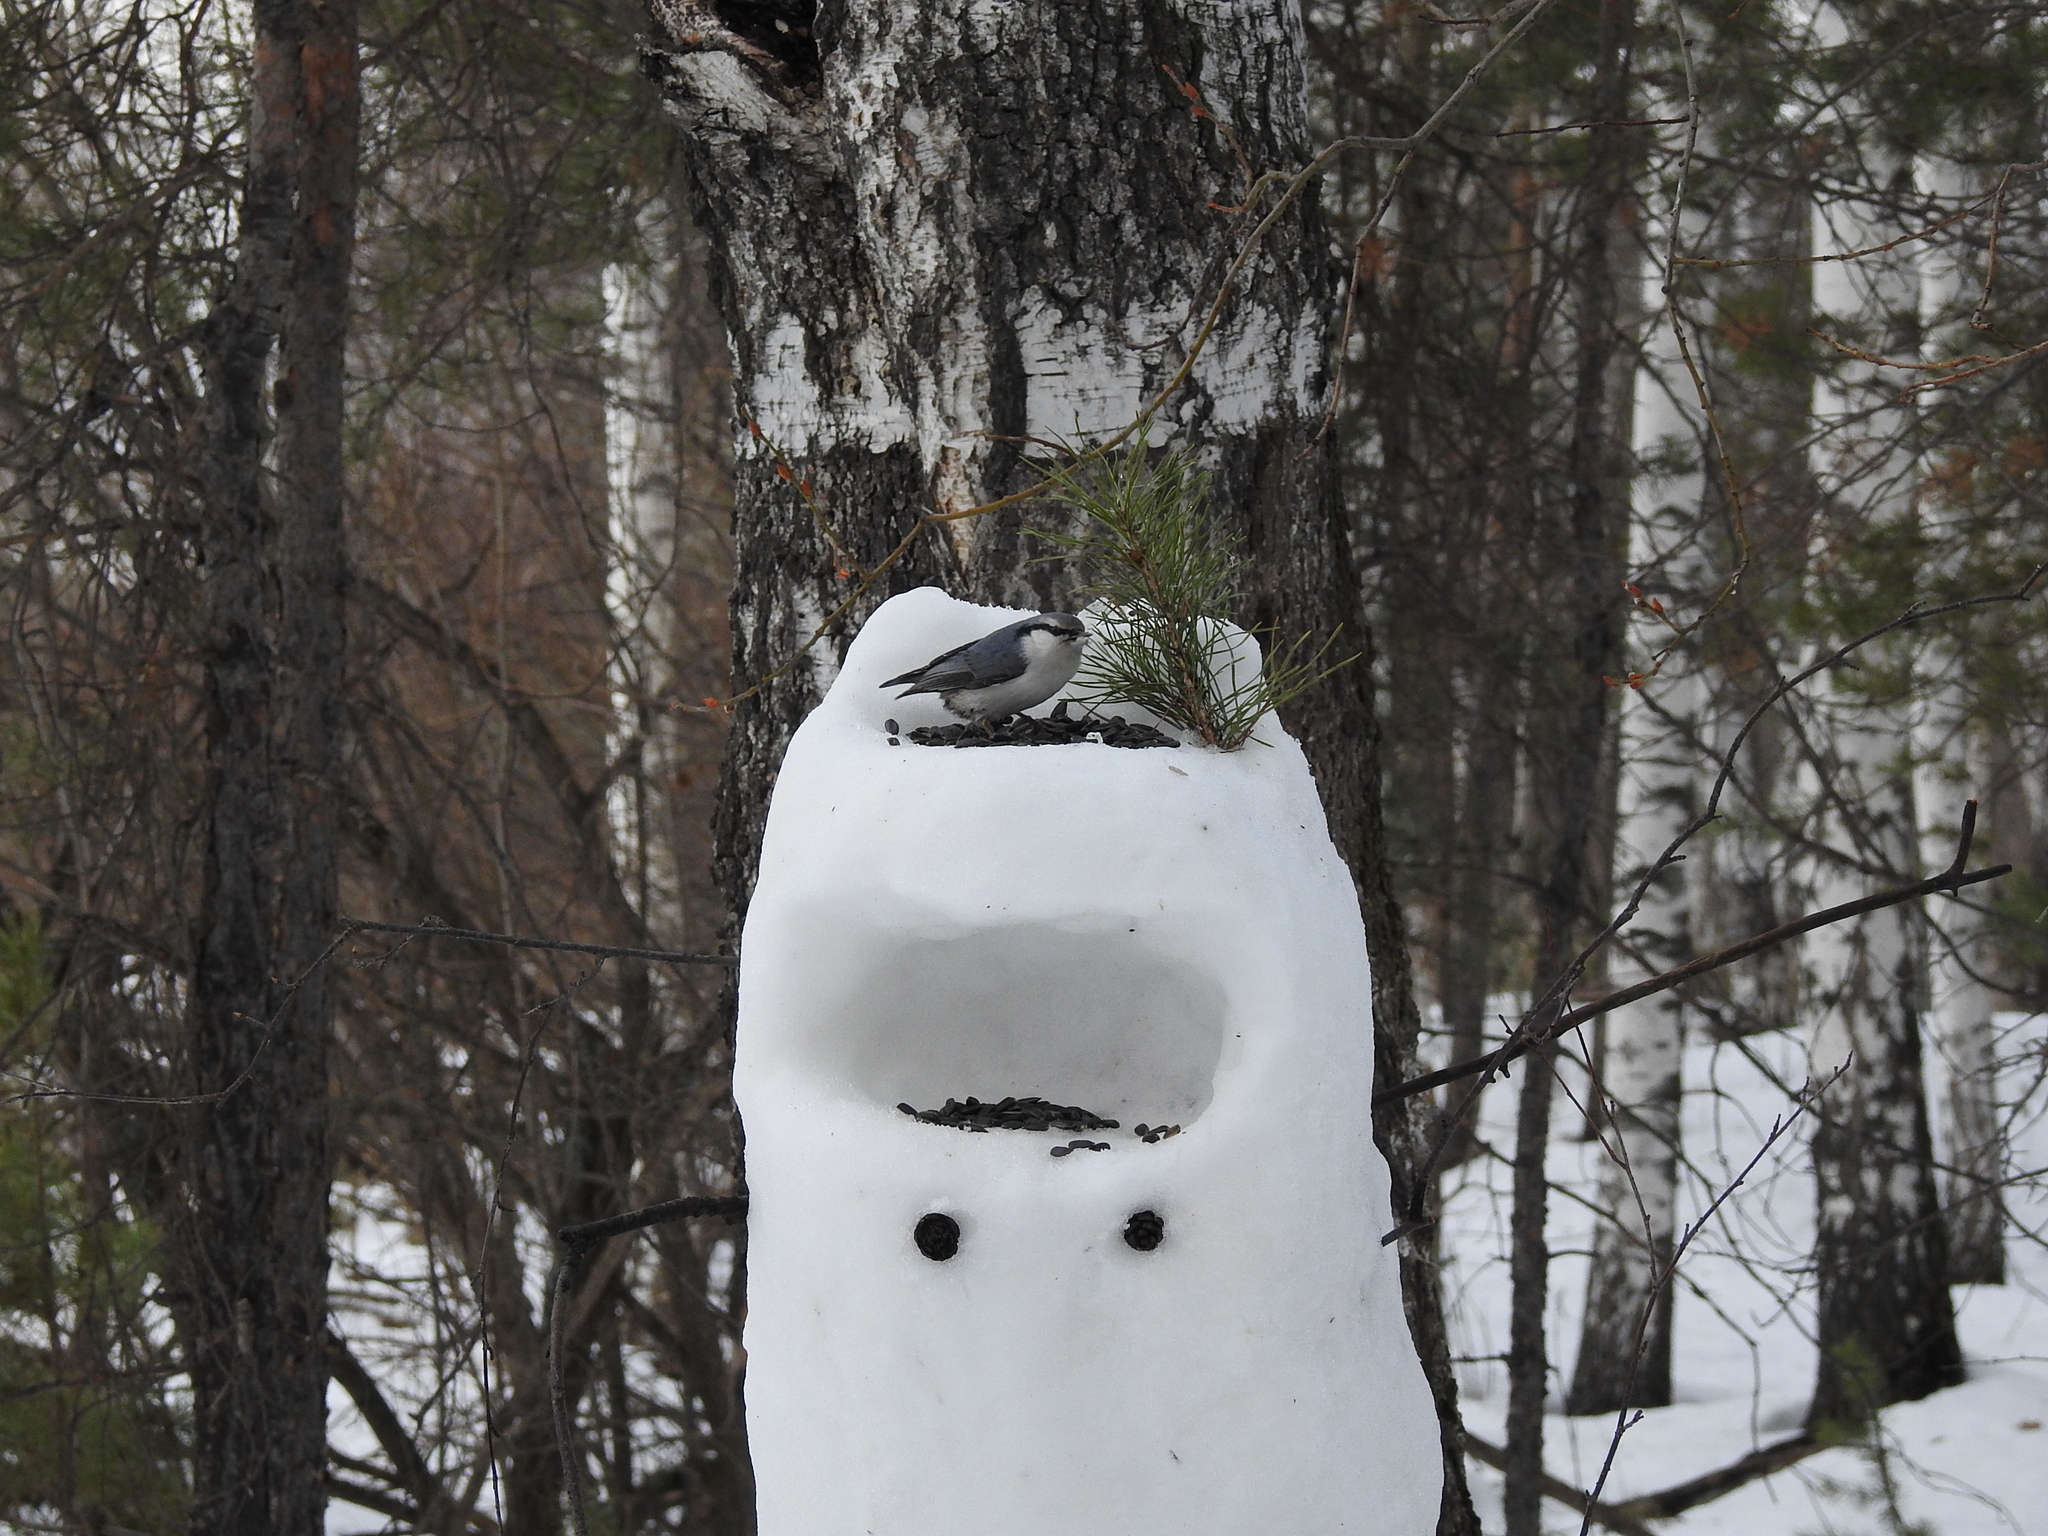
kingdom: Animalia
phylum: Chordata
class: Aves
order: Passeriformes
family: Sittidae
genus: Sitta
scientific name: Sitta europaea
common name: Eurasian nuthatch
